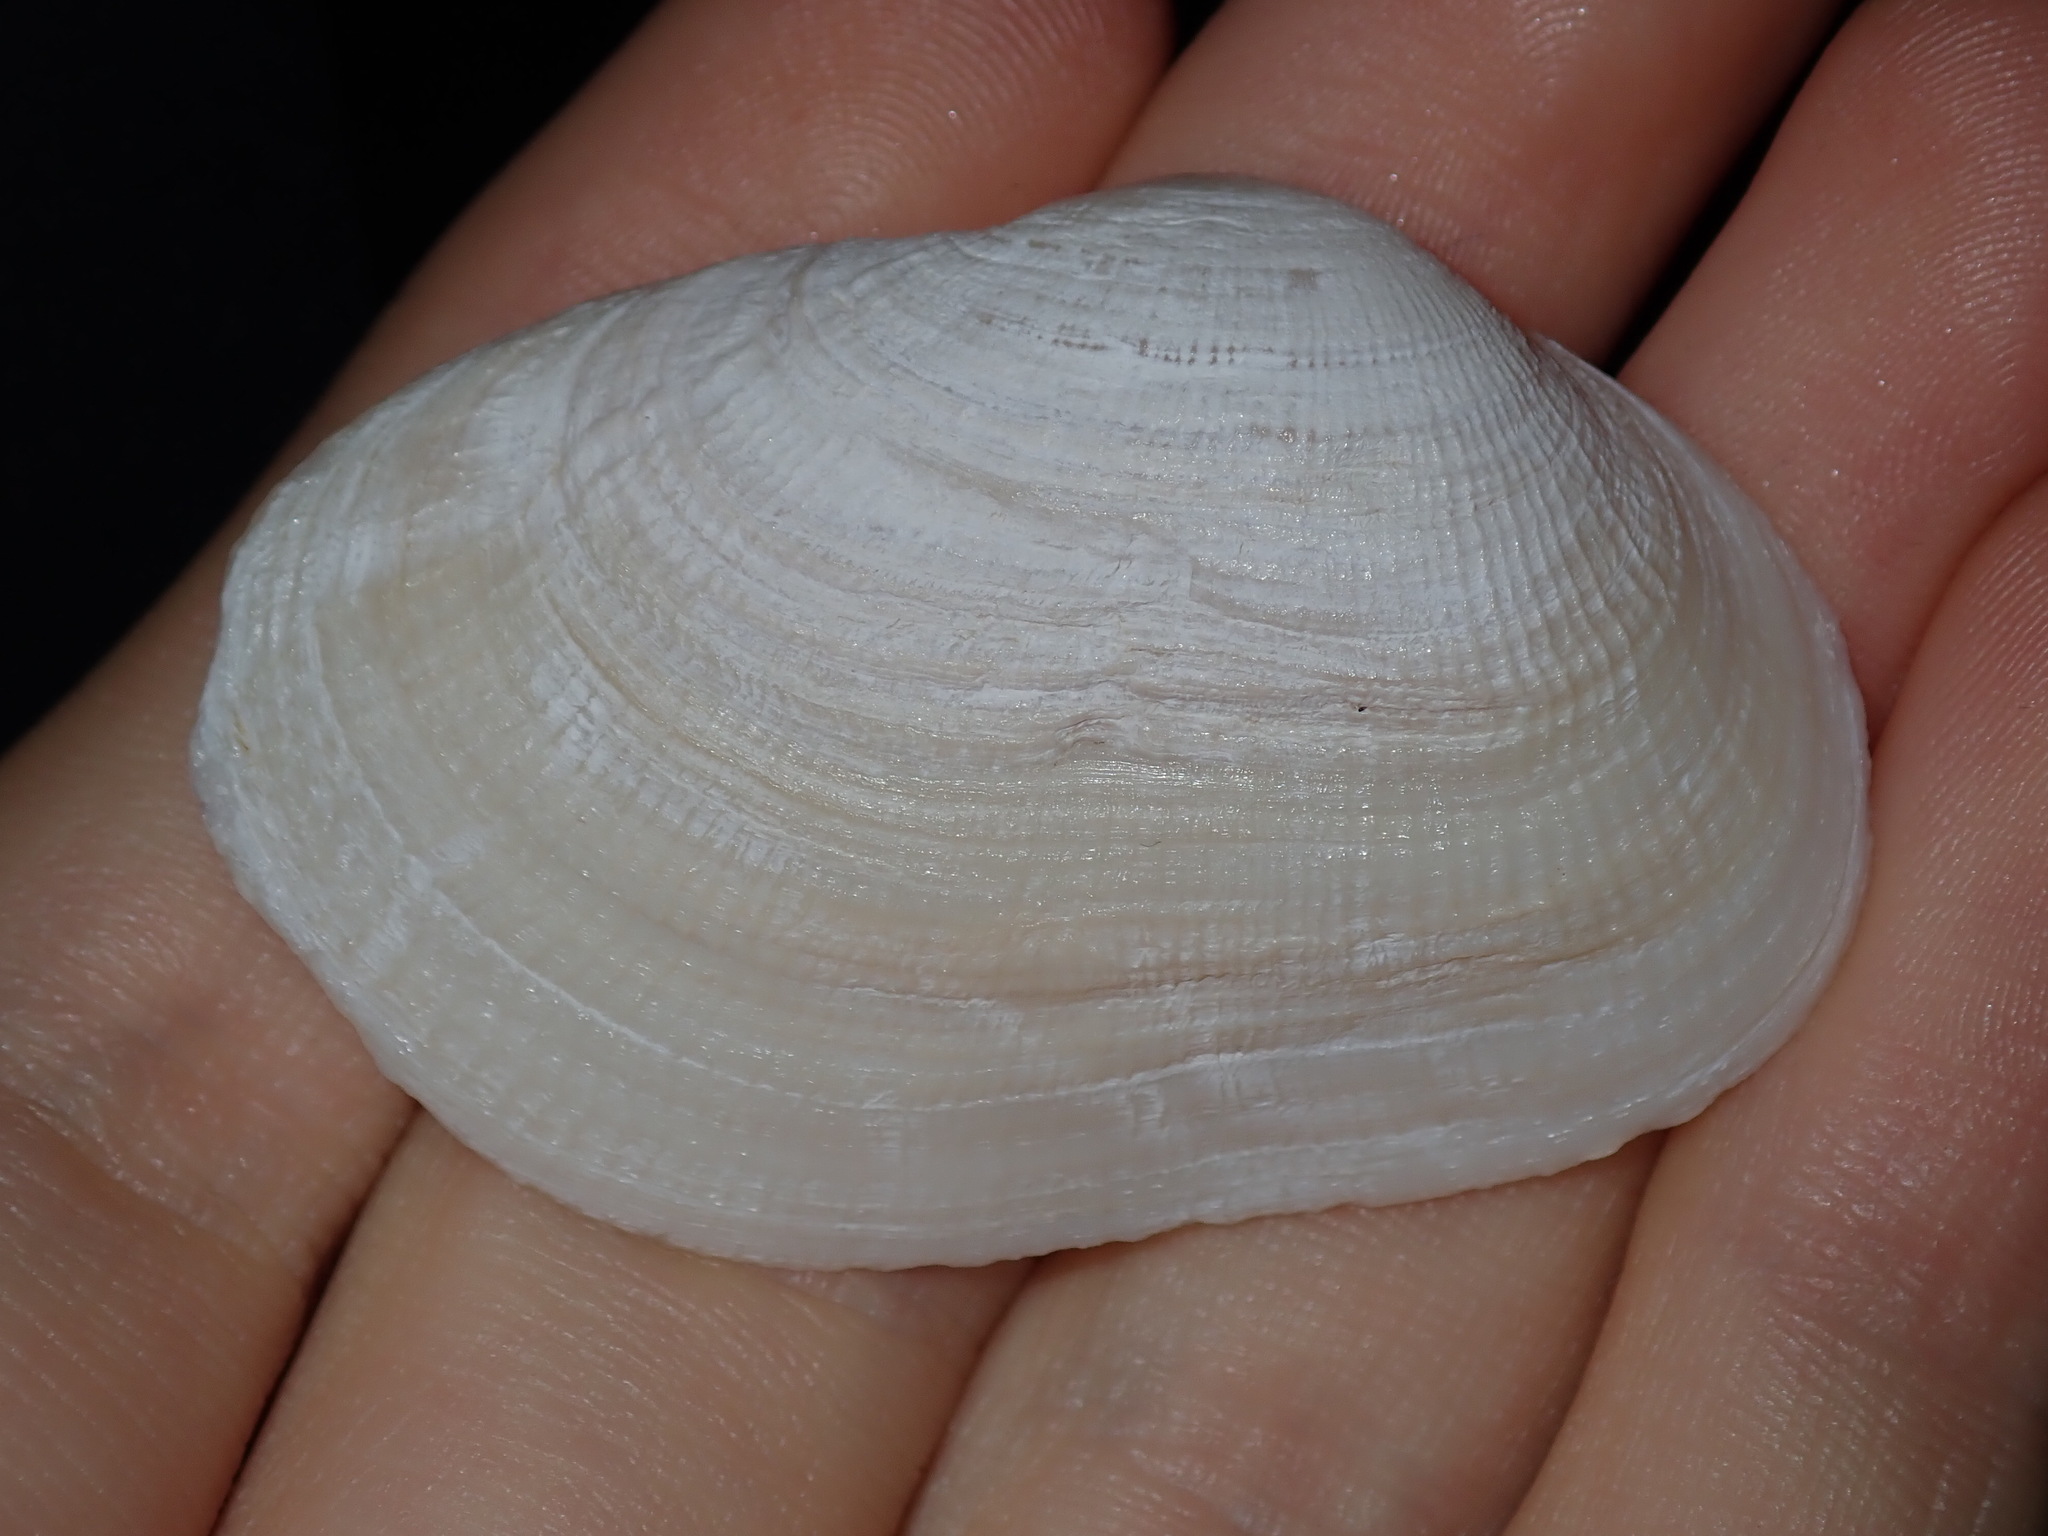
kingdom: Animalia
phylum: Mollusca
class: Bivalvia
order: Venerida
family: Mactridae
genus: Meropesta
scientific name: Meropesta nicobarica
